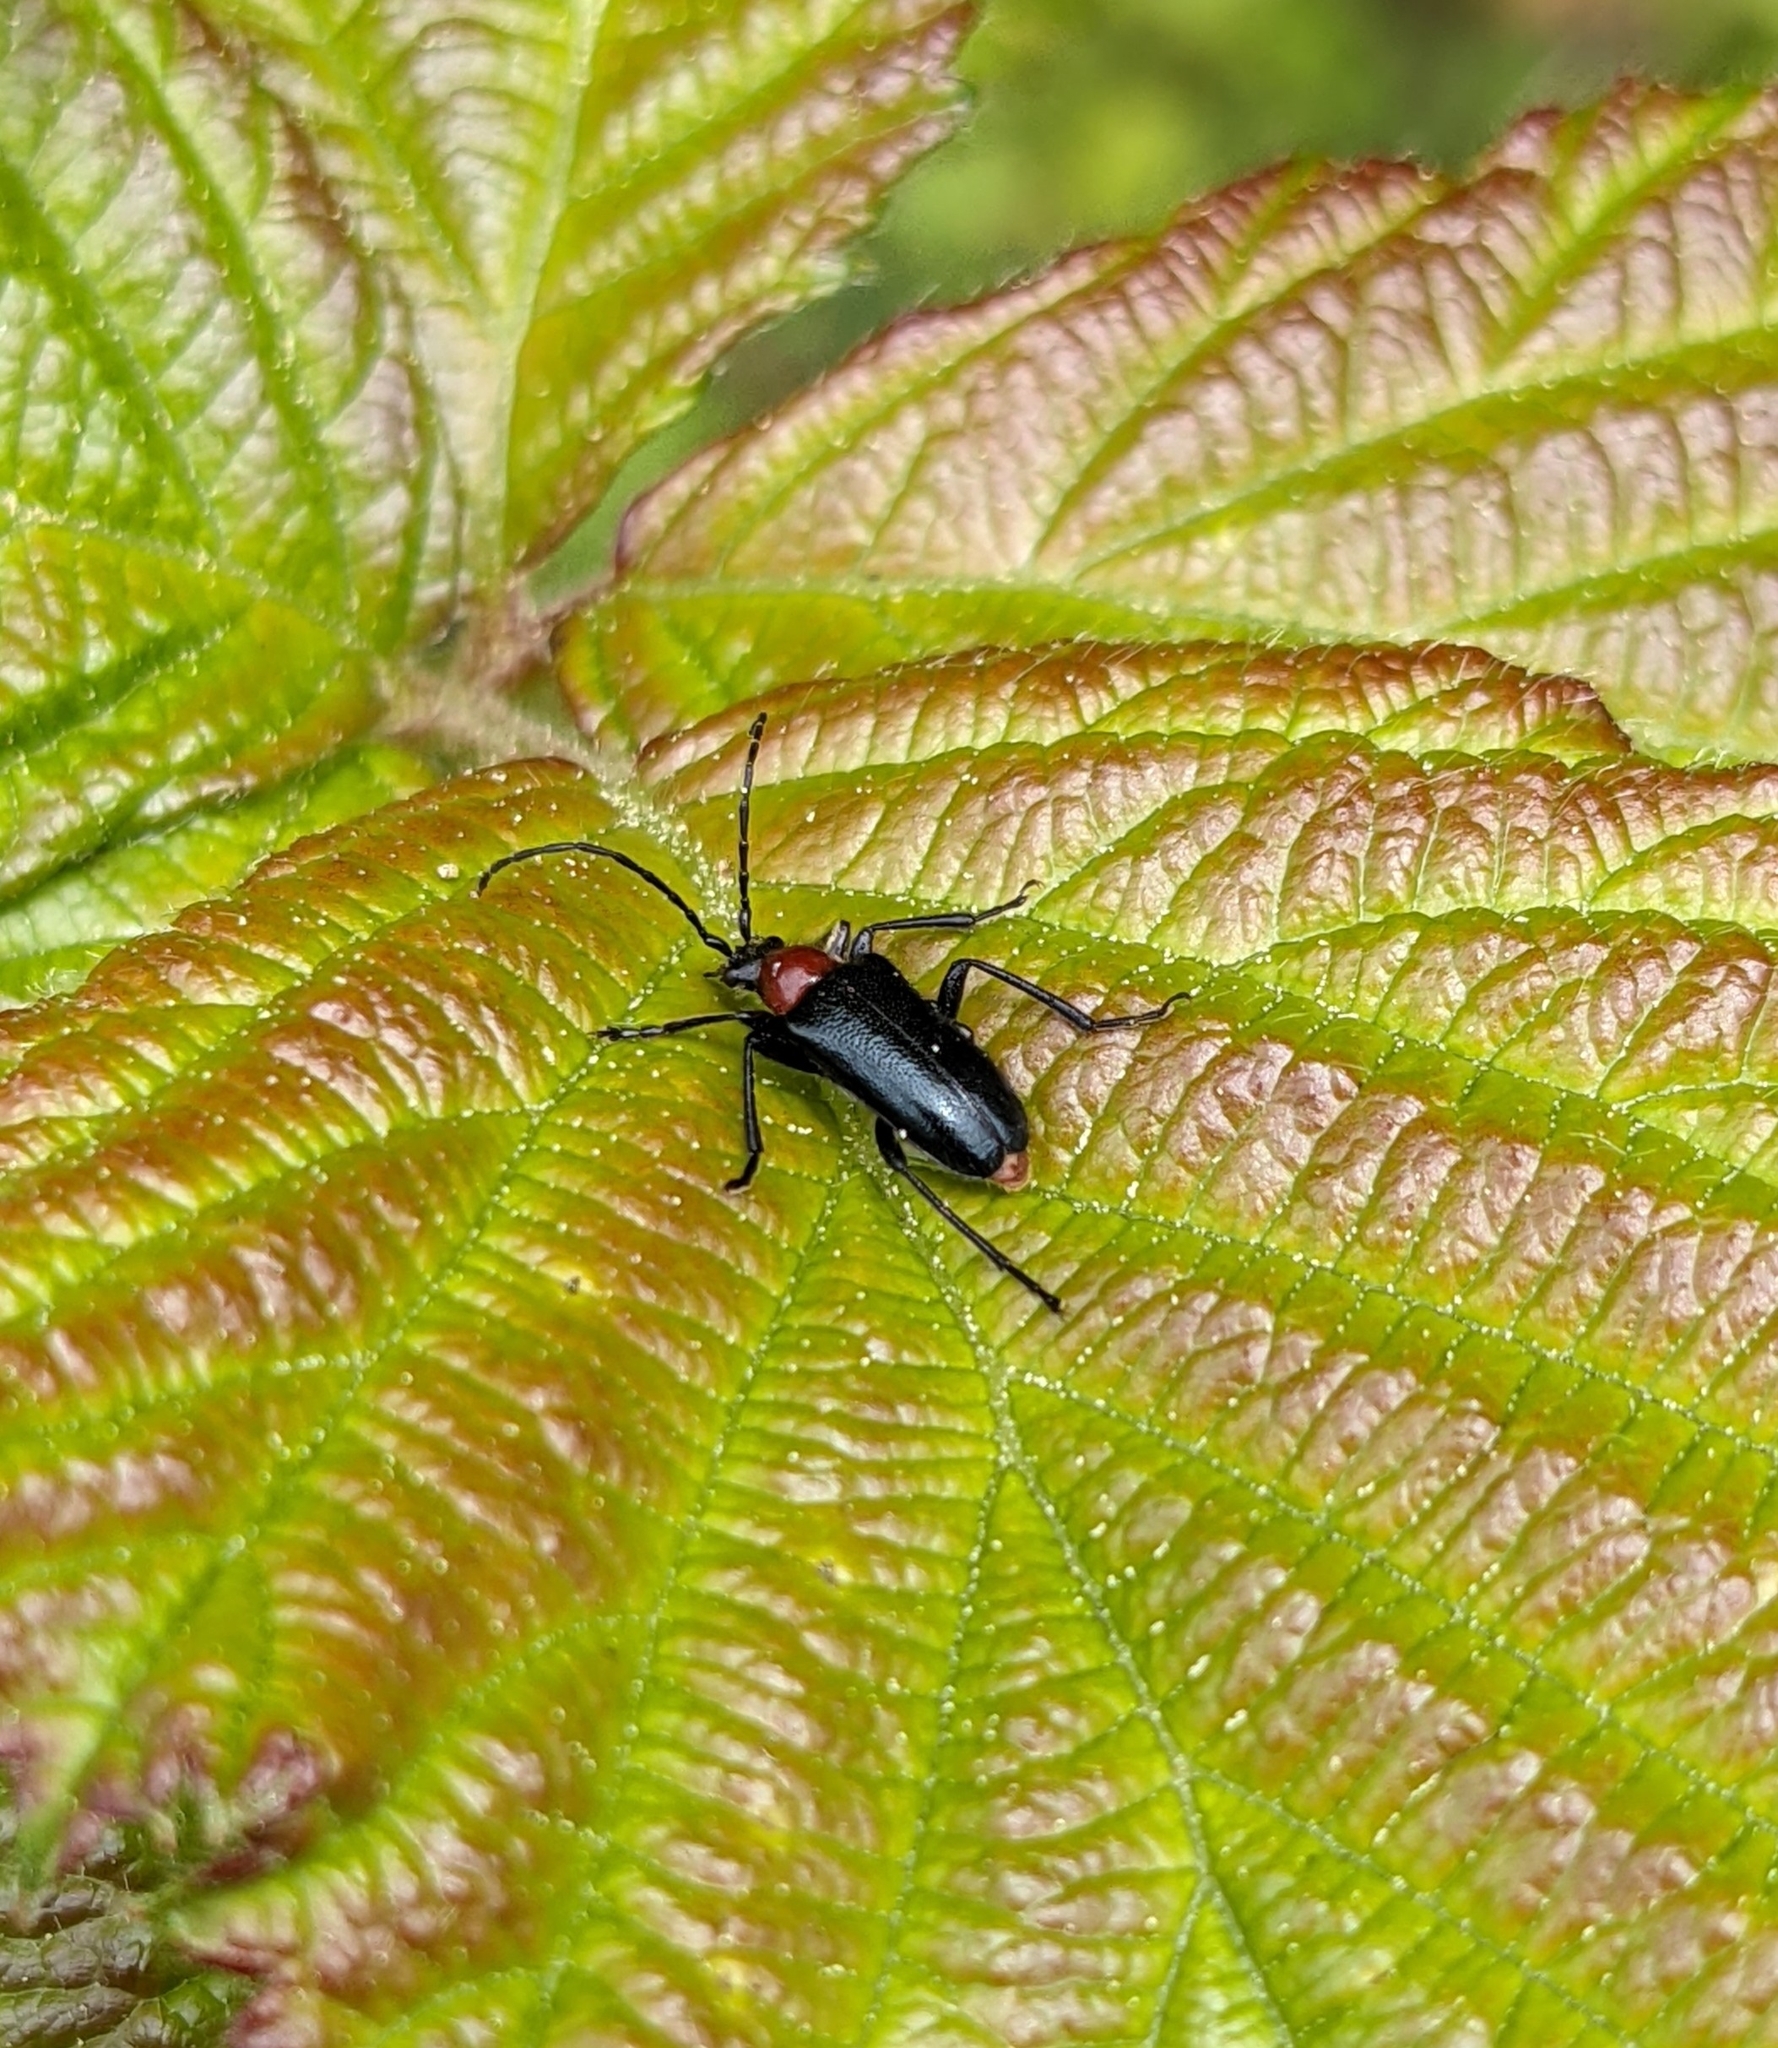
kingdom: Animalia
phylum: Arthropoda
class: Insecta
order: Coleoptera
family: Cerambycidae
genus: Dinoptera
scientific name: Dinoptera collaris
